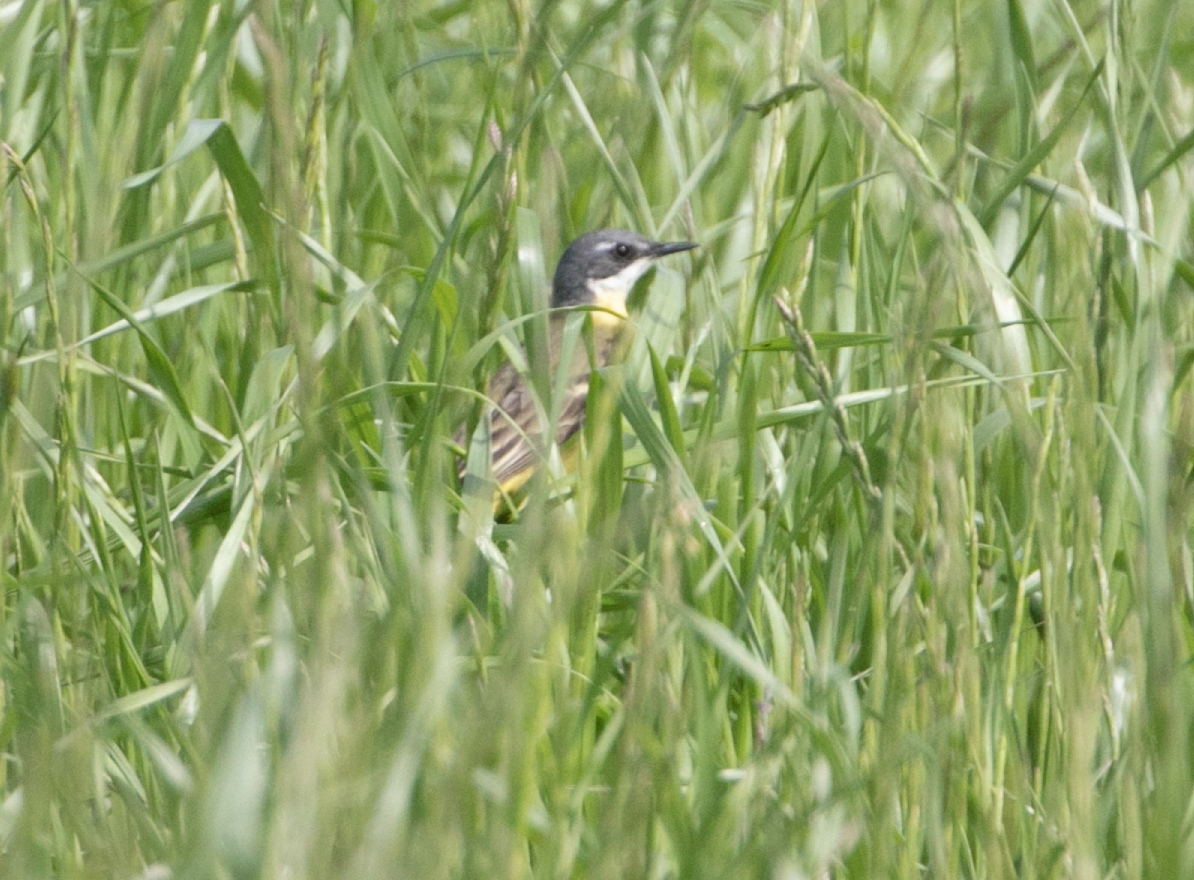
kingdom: Animalia
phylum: Chordata
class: Aves
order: Passeriformes
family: Motacillidae
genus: Motacilla
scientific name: Motacilla flava
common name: Western yellow wagtail
